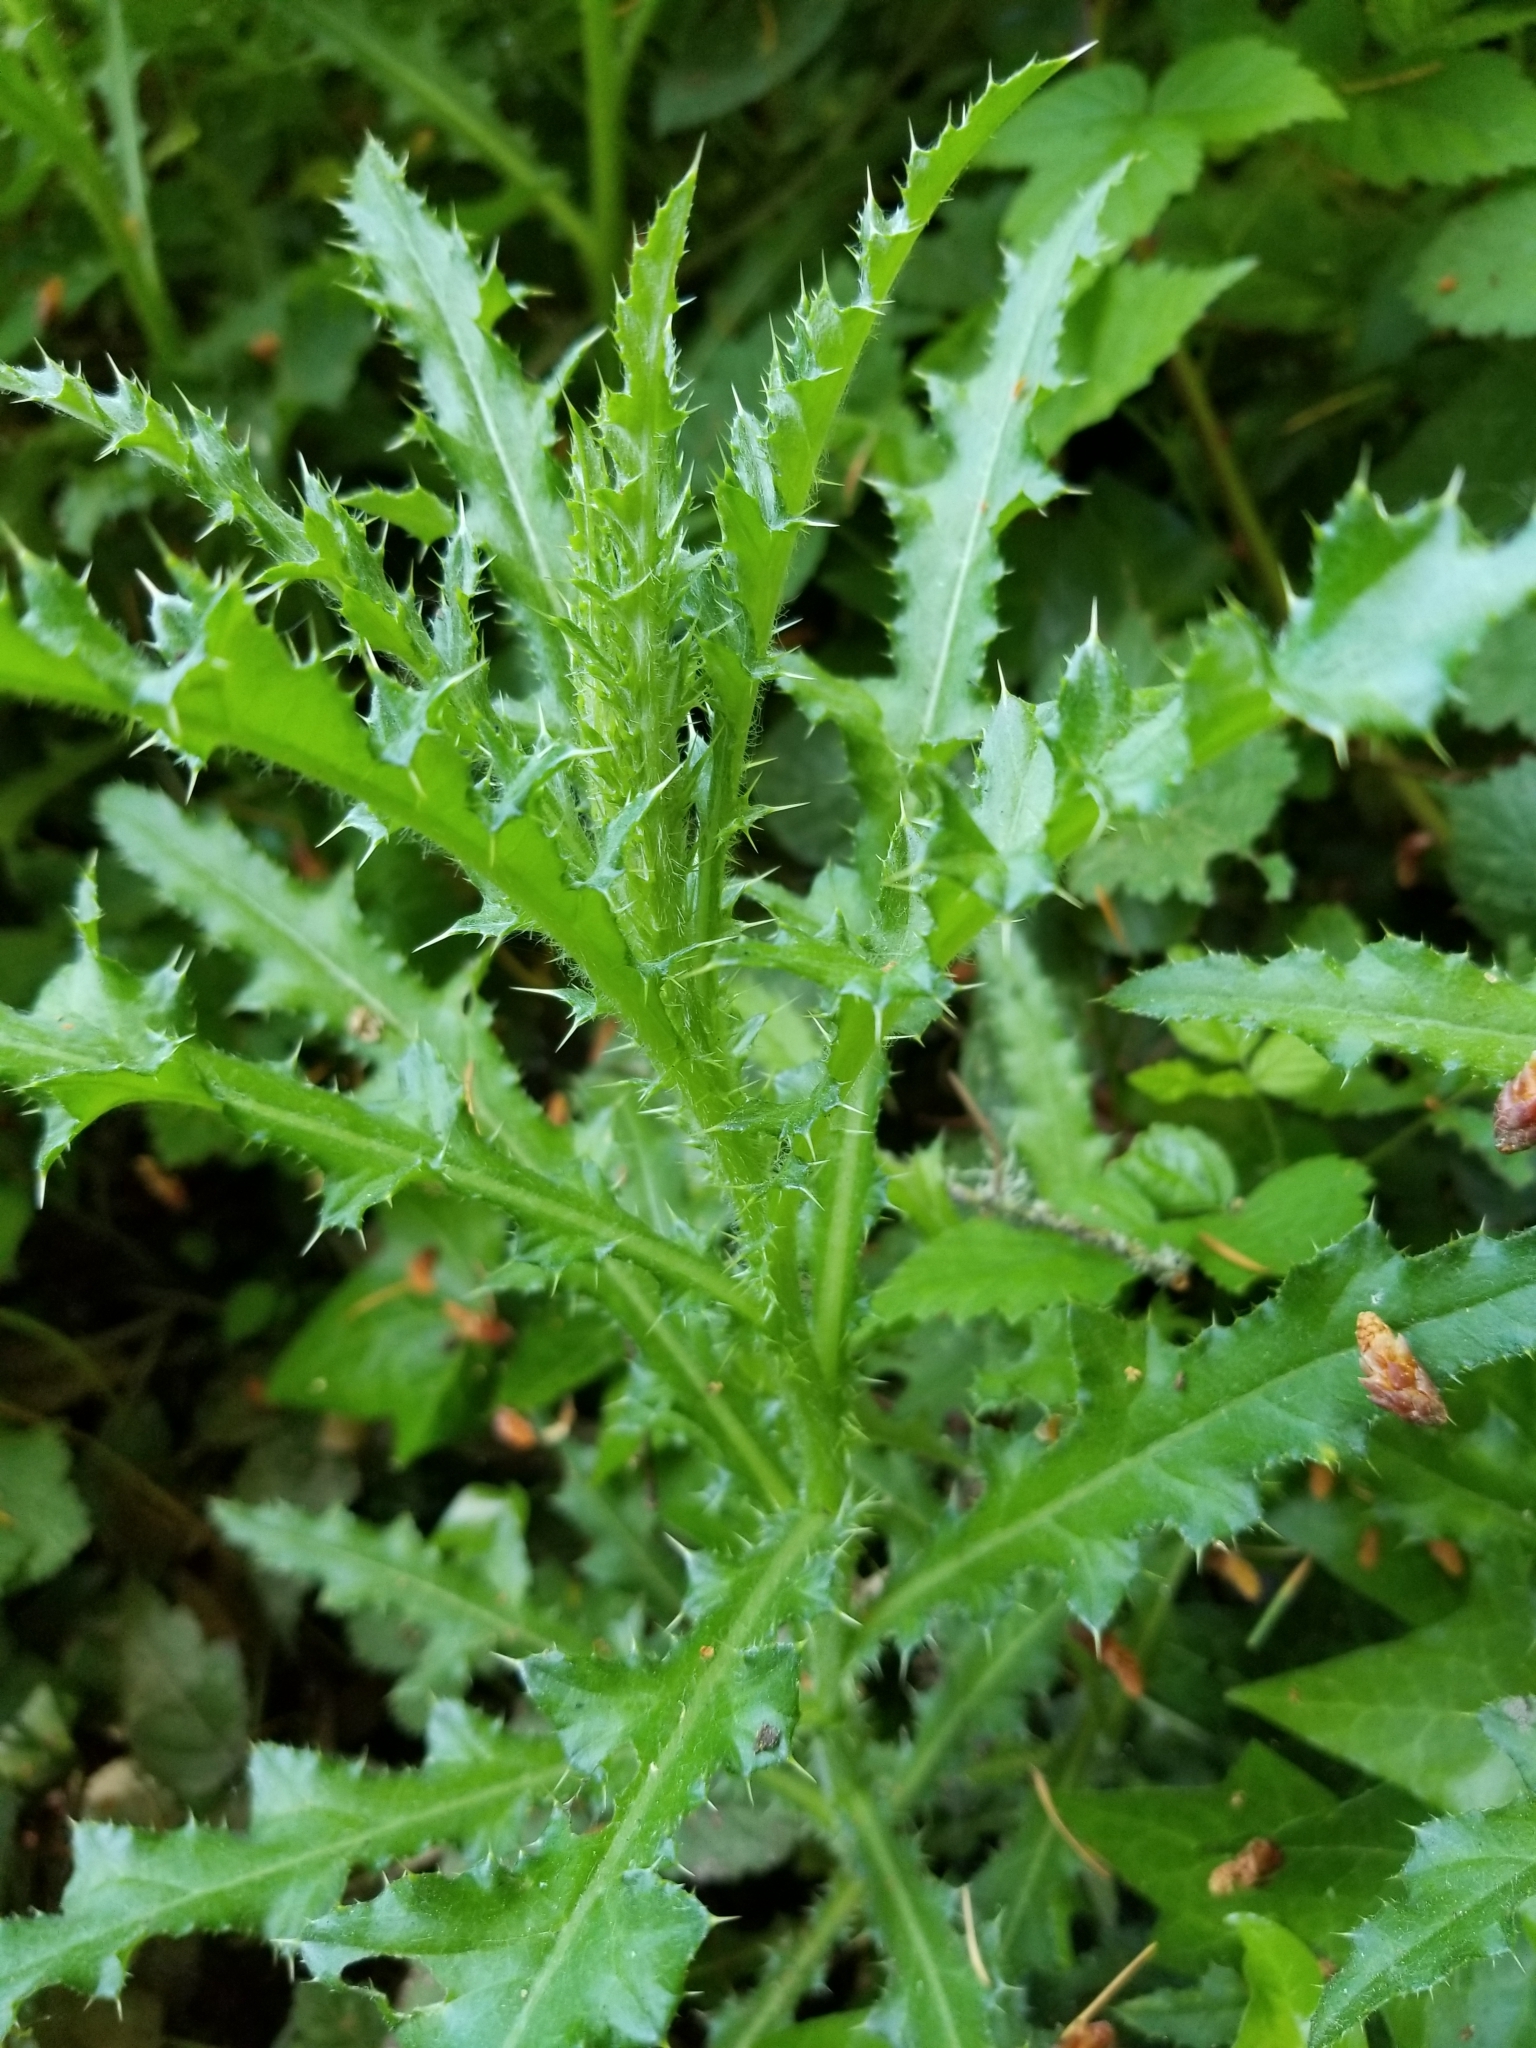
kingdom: Plantae
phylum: Tracheophyta
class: Magnoliopsida
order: Asterales
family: Asteraceae
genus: Cirsium
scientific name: Cirsium arvense
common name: Creeping thistle
